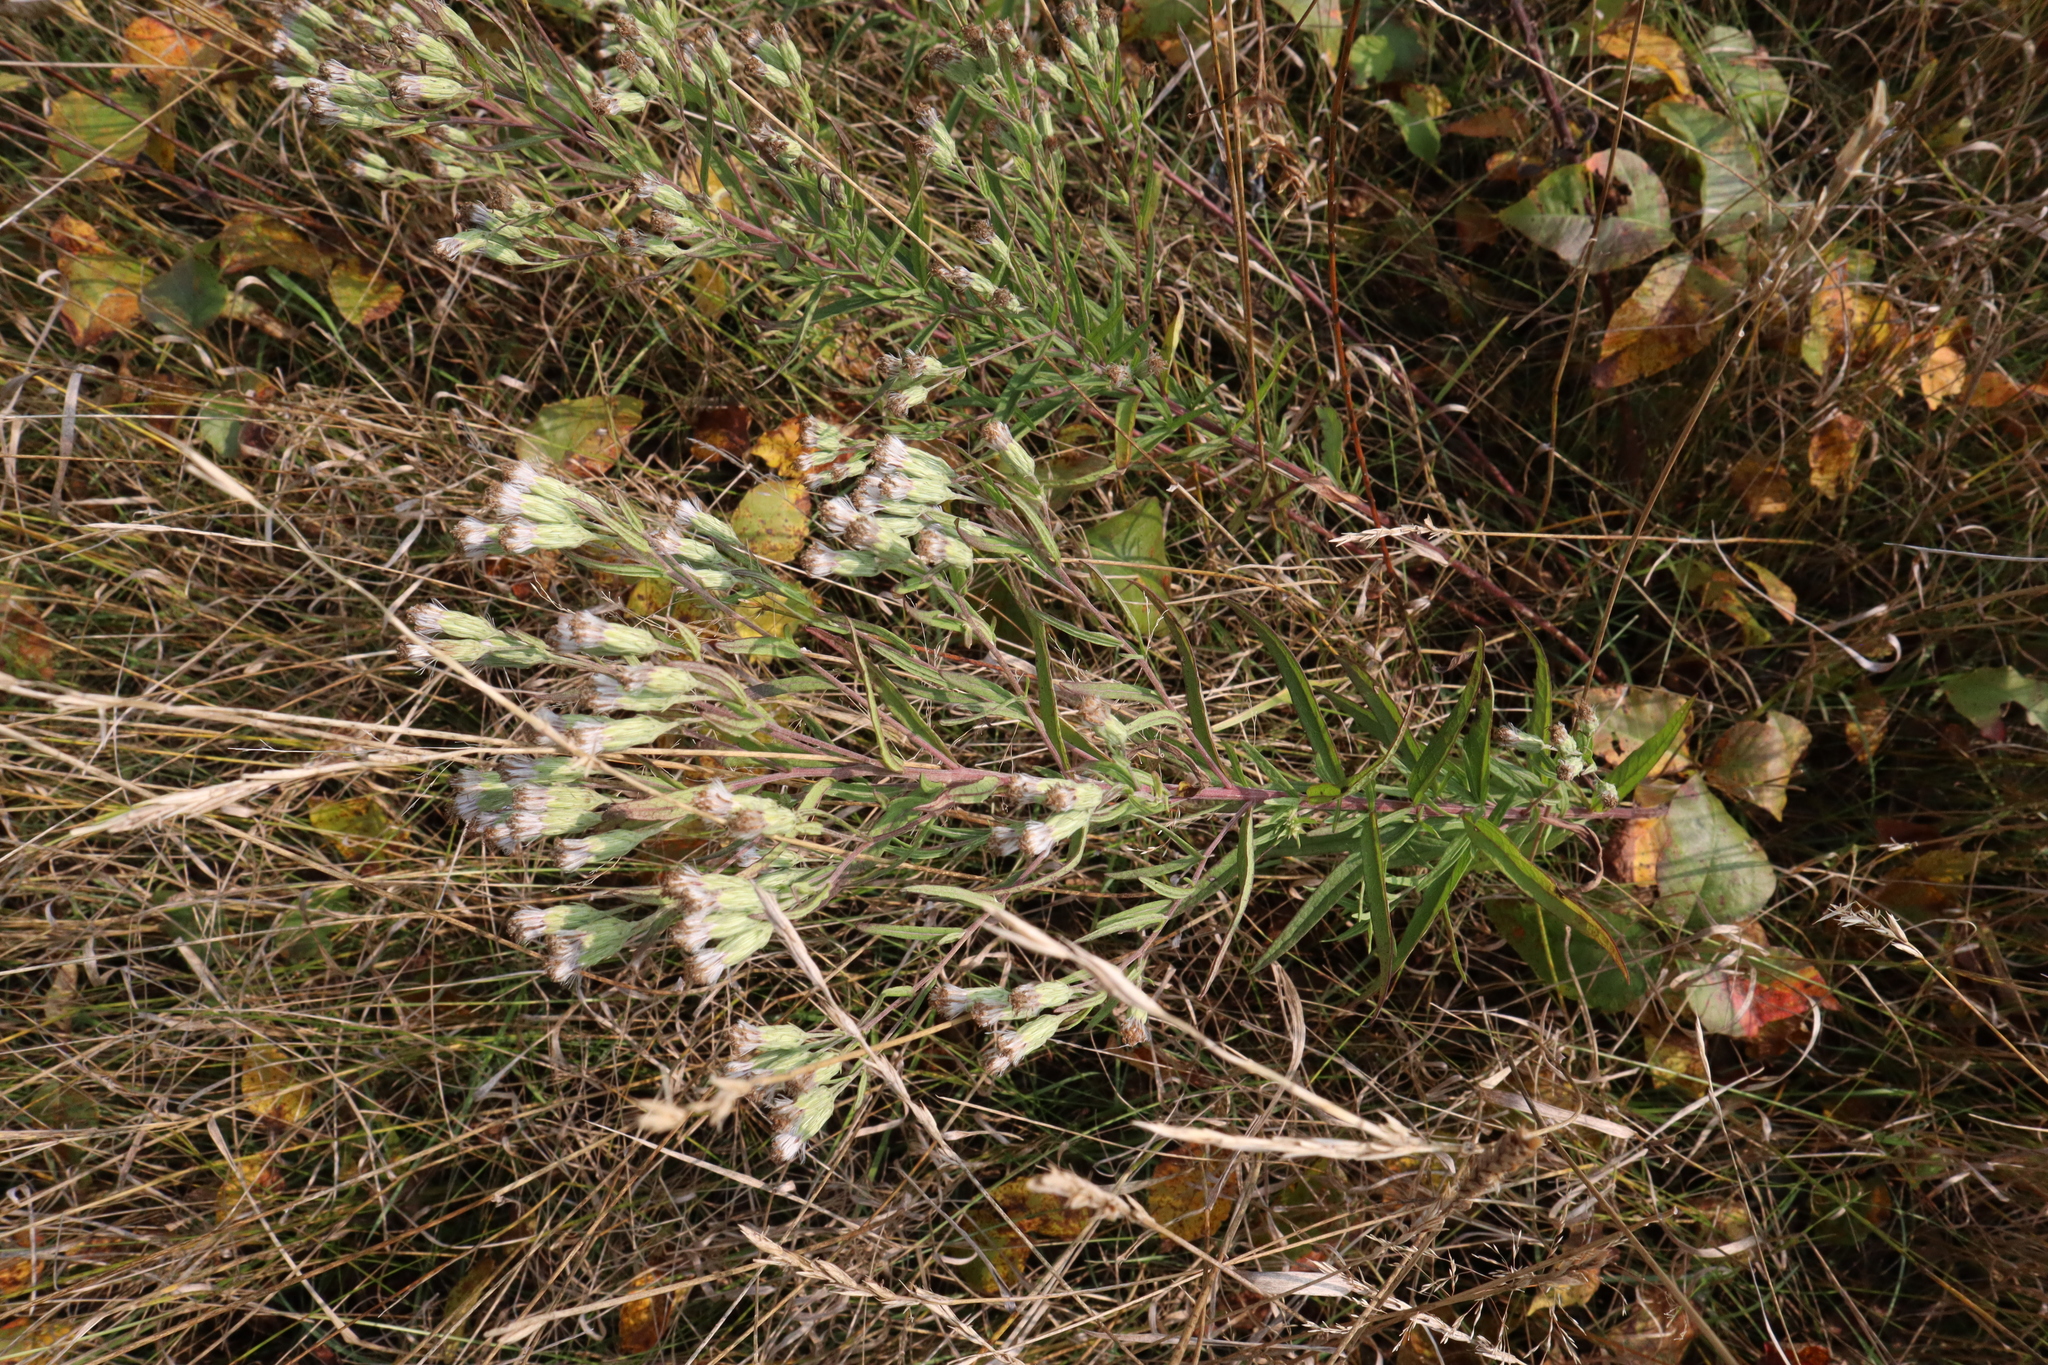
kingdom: Plantae
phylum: Tracheophyta
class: Magnoliopsida
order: Asterales
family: Asteraceae
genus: Brickellia
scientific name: Brickellia eupatorioides
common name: False boneset
